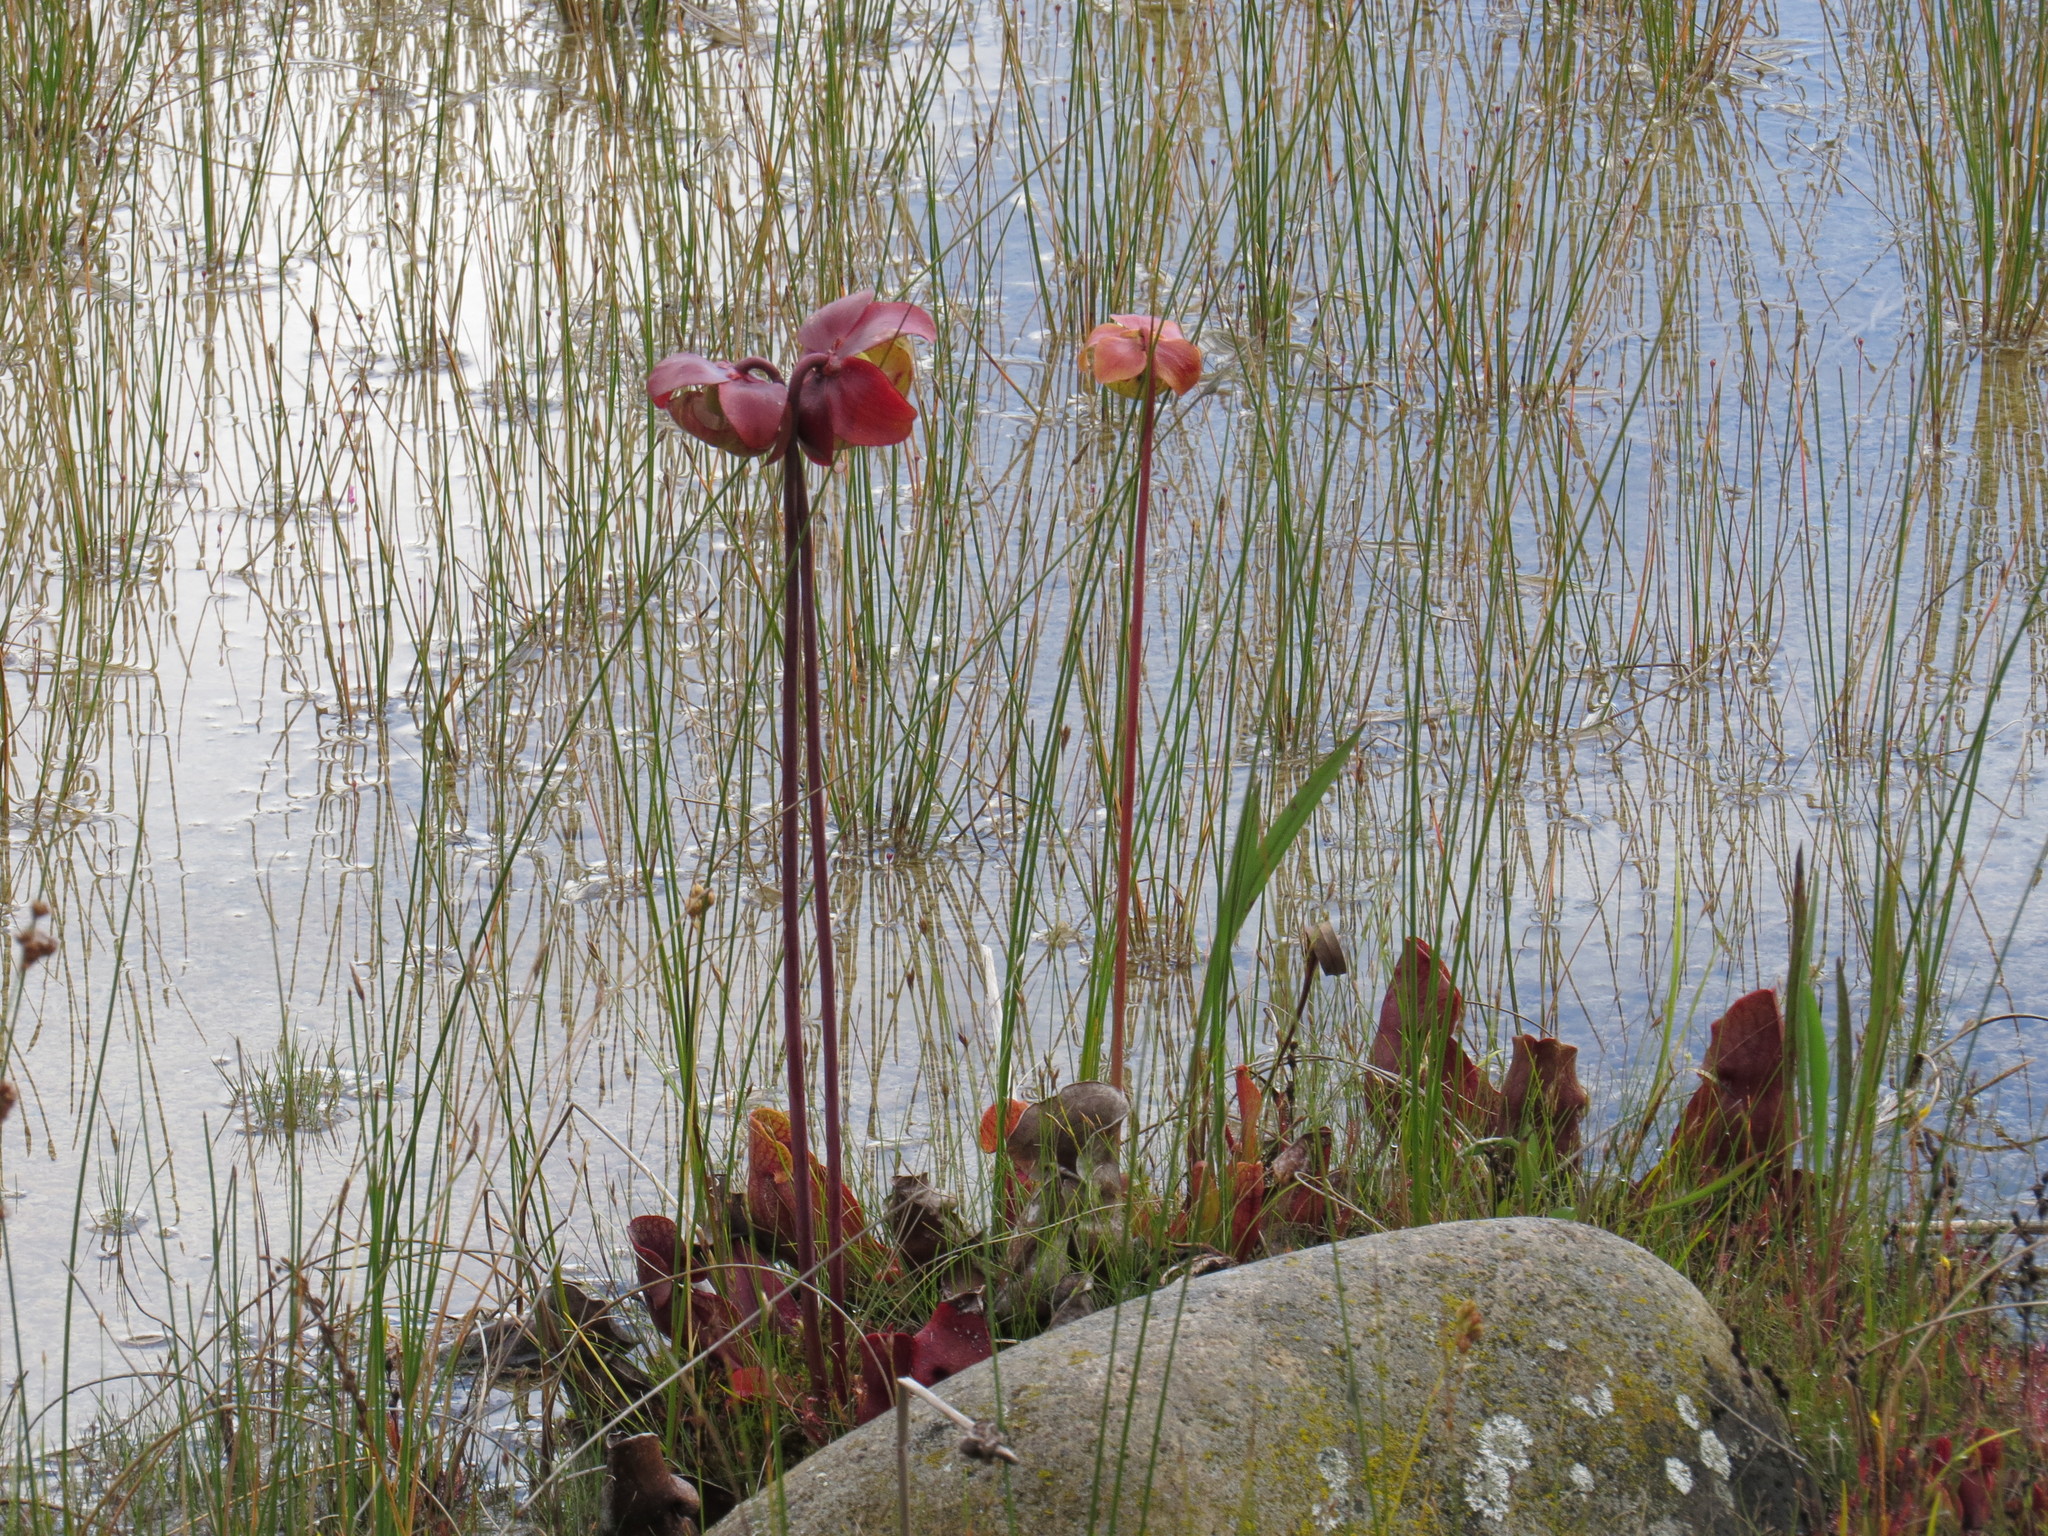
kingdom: Plantae
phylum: Tracheophyta
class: Magnoliopsida
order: Ericales
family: Sarraceniaceae
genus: Sarracenia
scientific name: Sarracenia purpurea
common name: Pitcherplant
